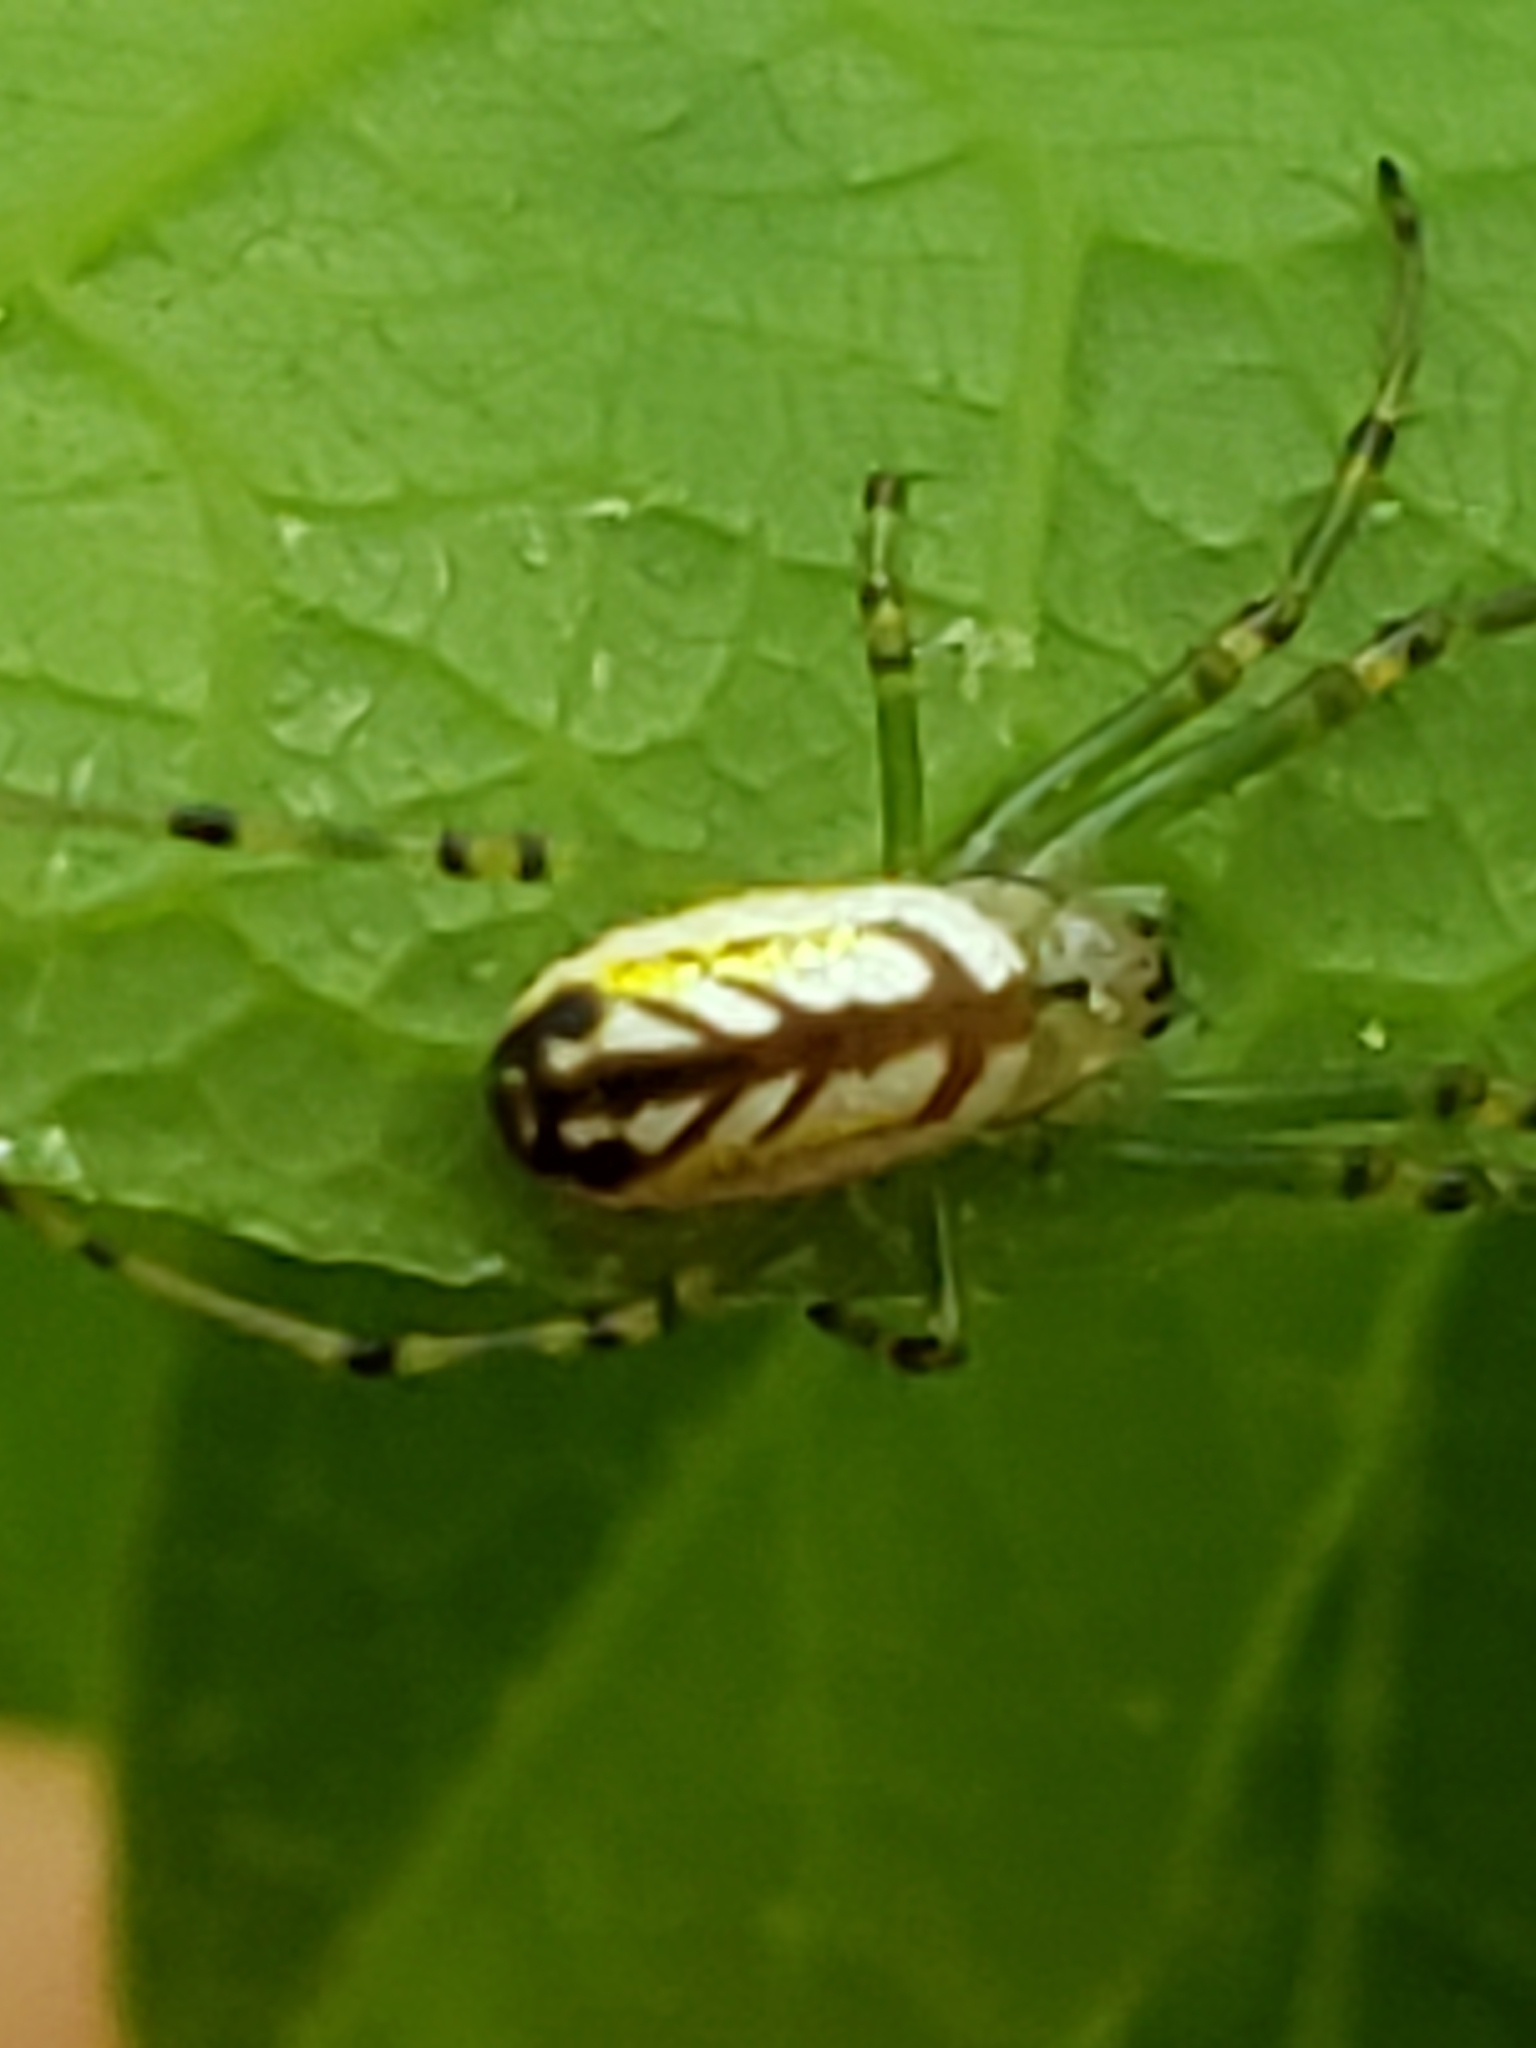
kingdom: Animalia
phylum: Arthropoda
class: Arachnida
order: Araneae
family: Tetragnathidae
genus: Leucauge
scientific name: Leucauge venusta
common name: Longjawed orb weavers
